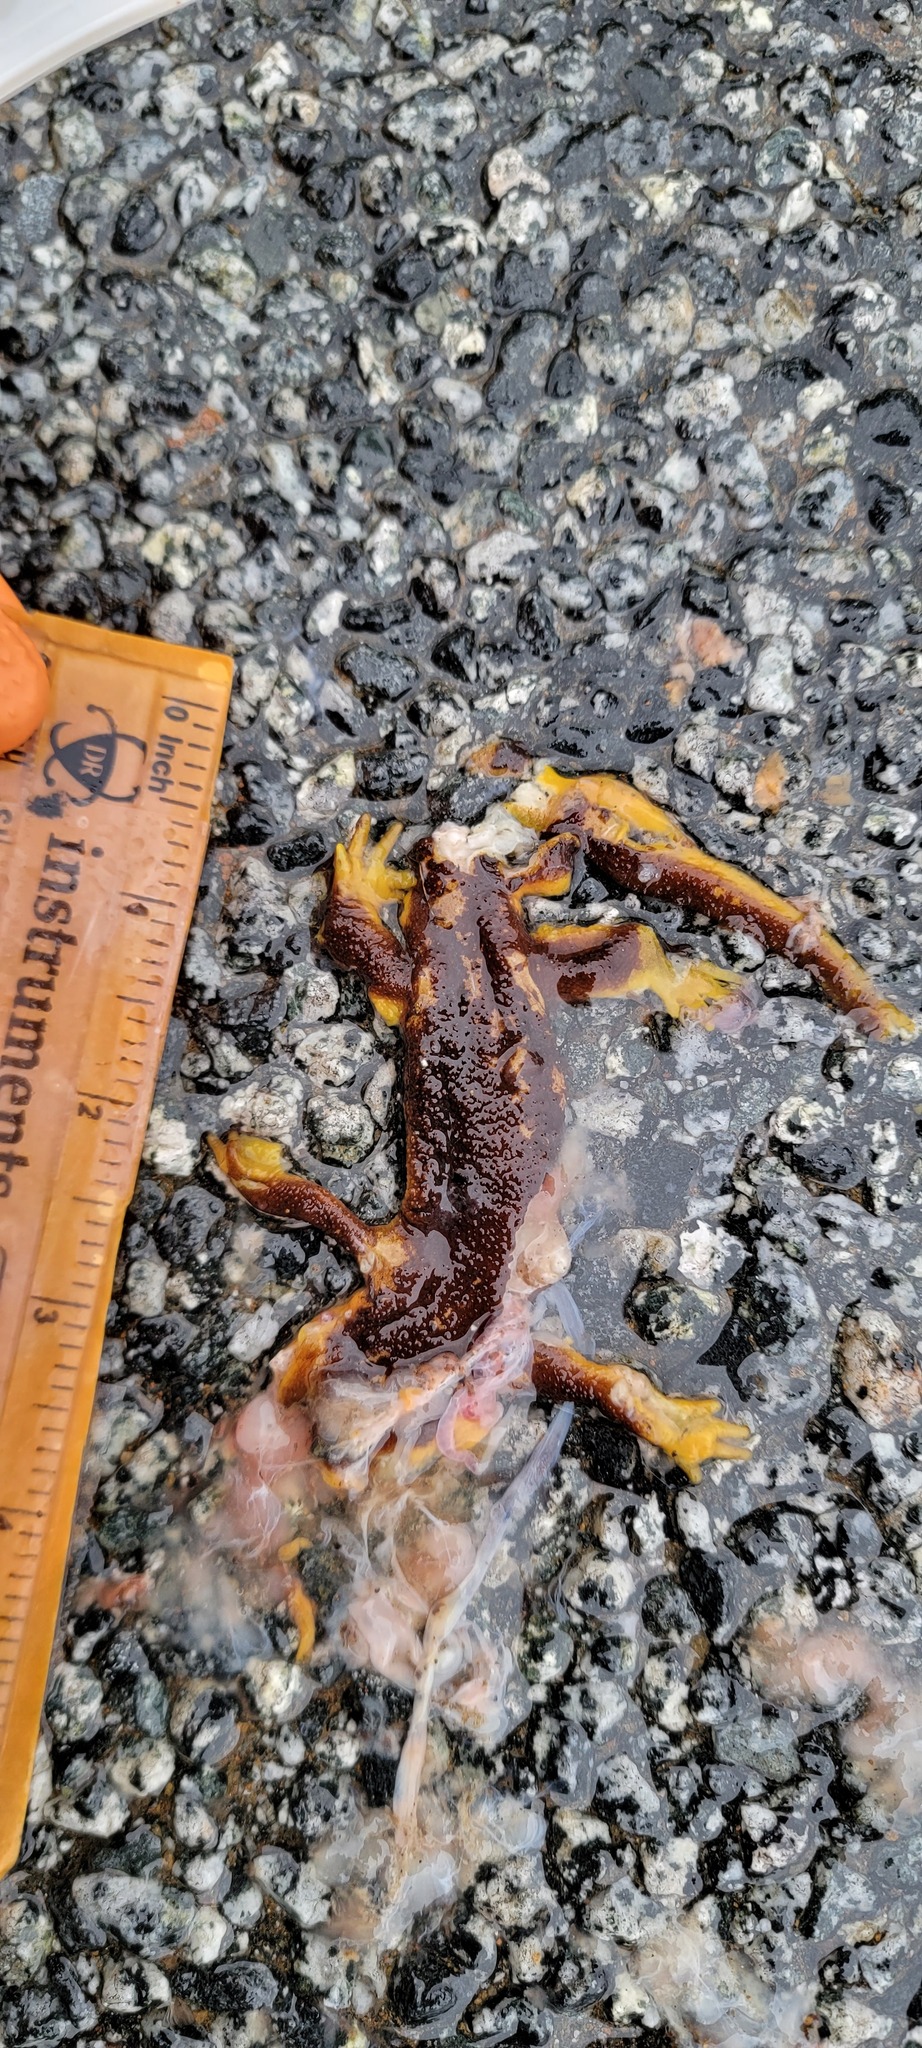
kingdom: Animalia
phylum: Chordata
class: Amphibia
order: Caudata
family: Salamandridae
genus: Taricha
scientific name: Taricha
